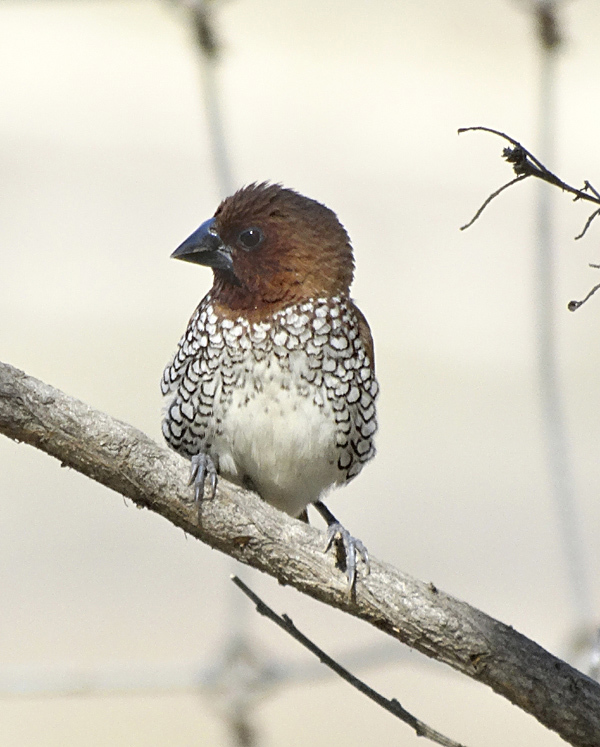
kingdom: Animalia
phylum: Chordata
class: Aves
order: Passeriformes
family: Estrildidae
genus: Lonchura
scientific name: Lonchura punctulata
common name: Scaly-breasted munia
